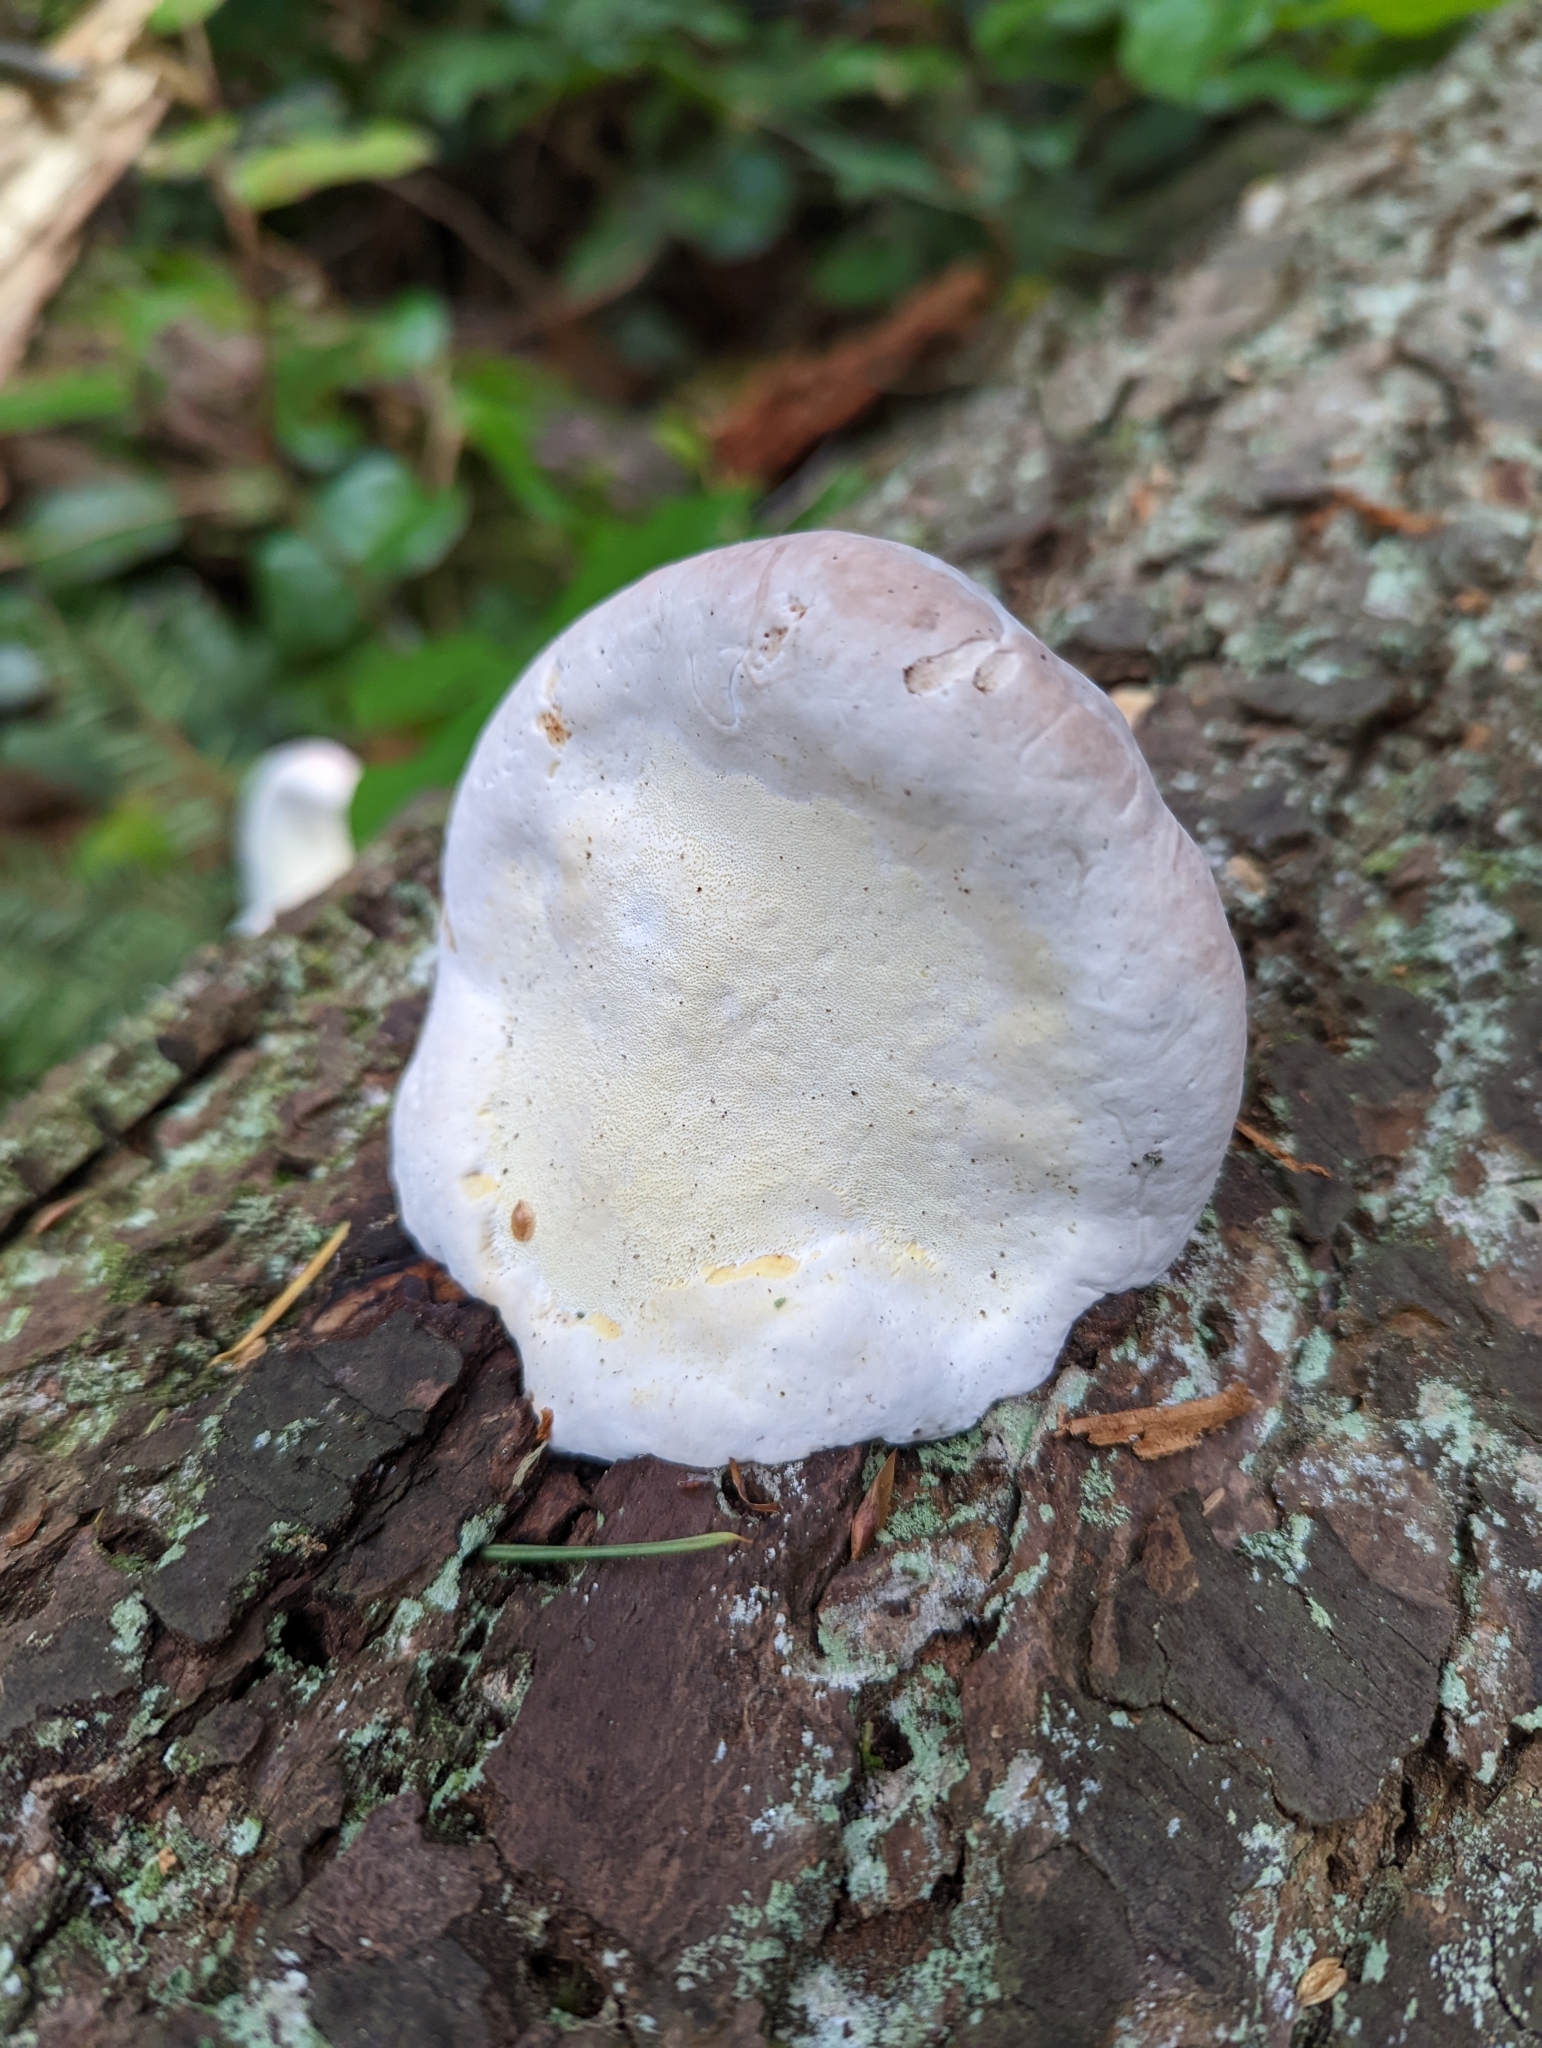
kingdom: Fungi
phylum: Basidiomycota
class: Agaricomycetes
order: Polyporales
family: Fomitopsidaceae
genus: Fomitopsis
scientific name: Fomitopsis mounceae
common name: Northern red belt
